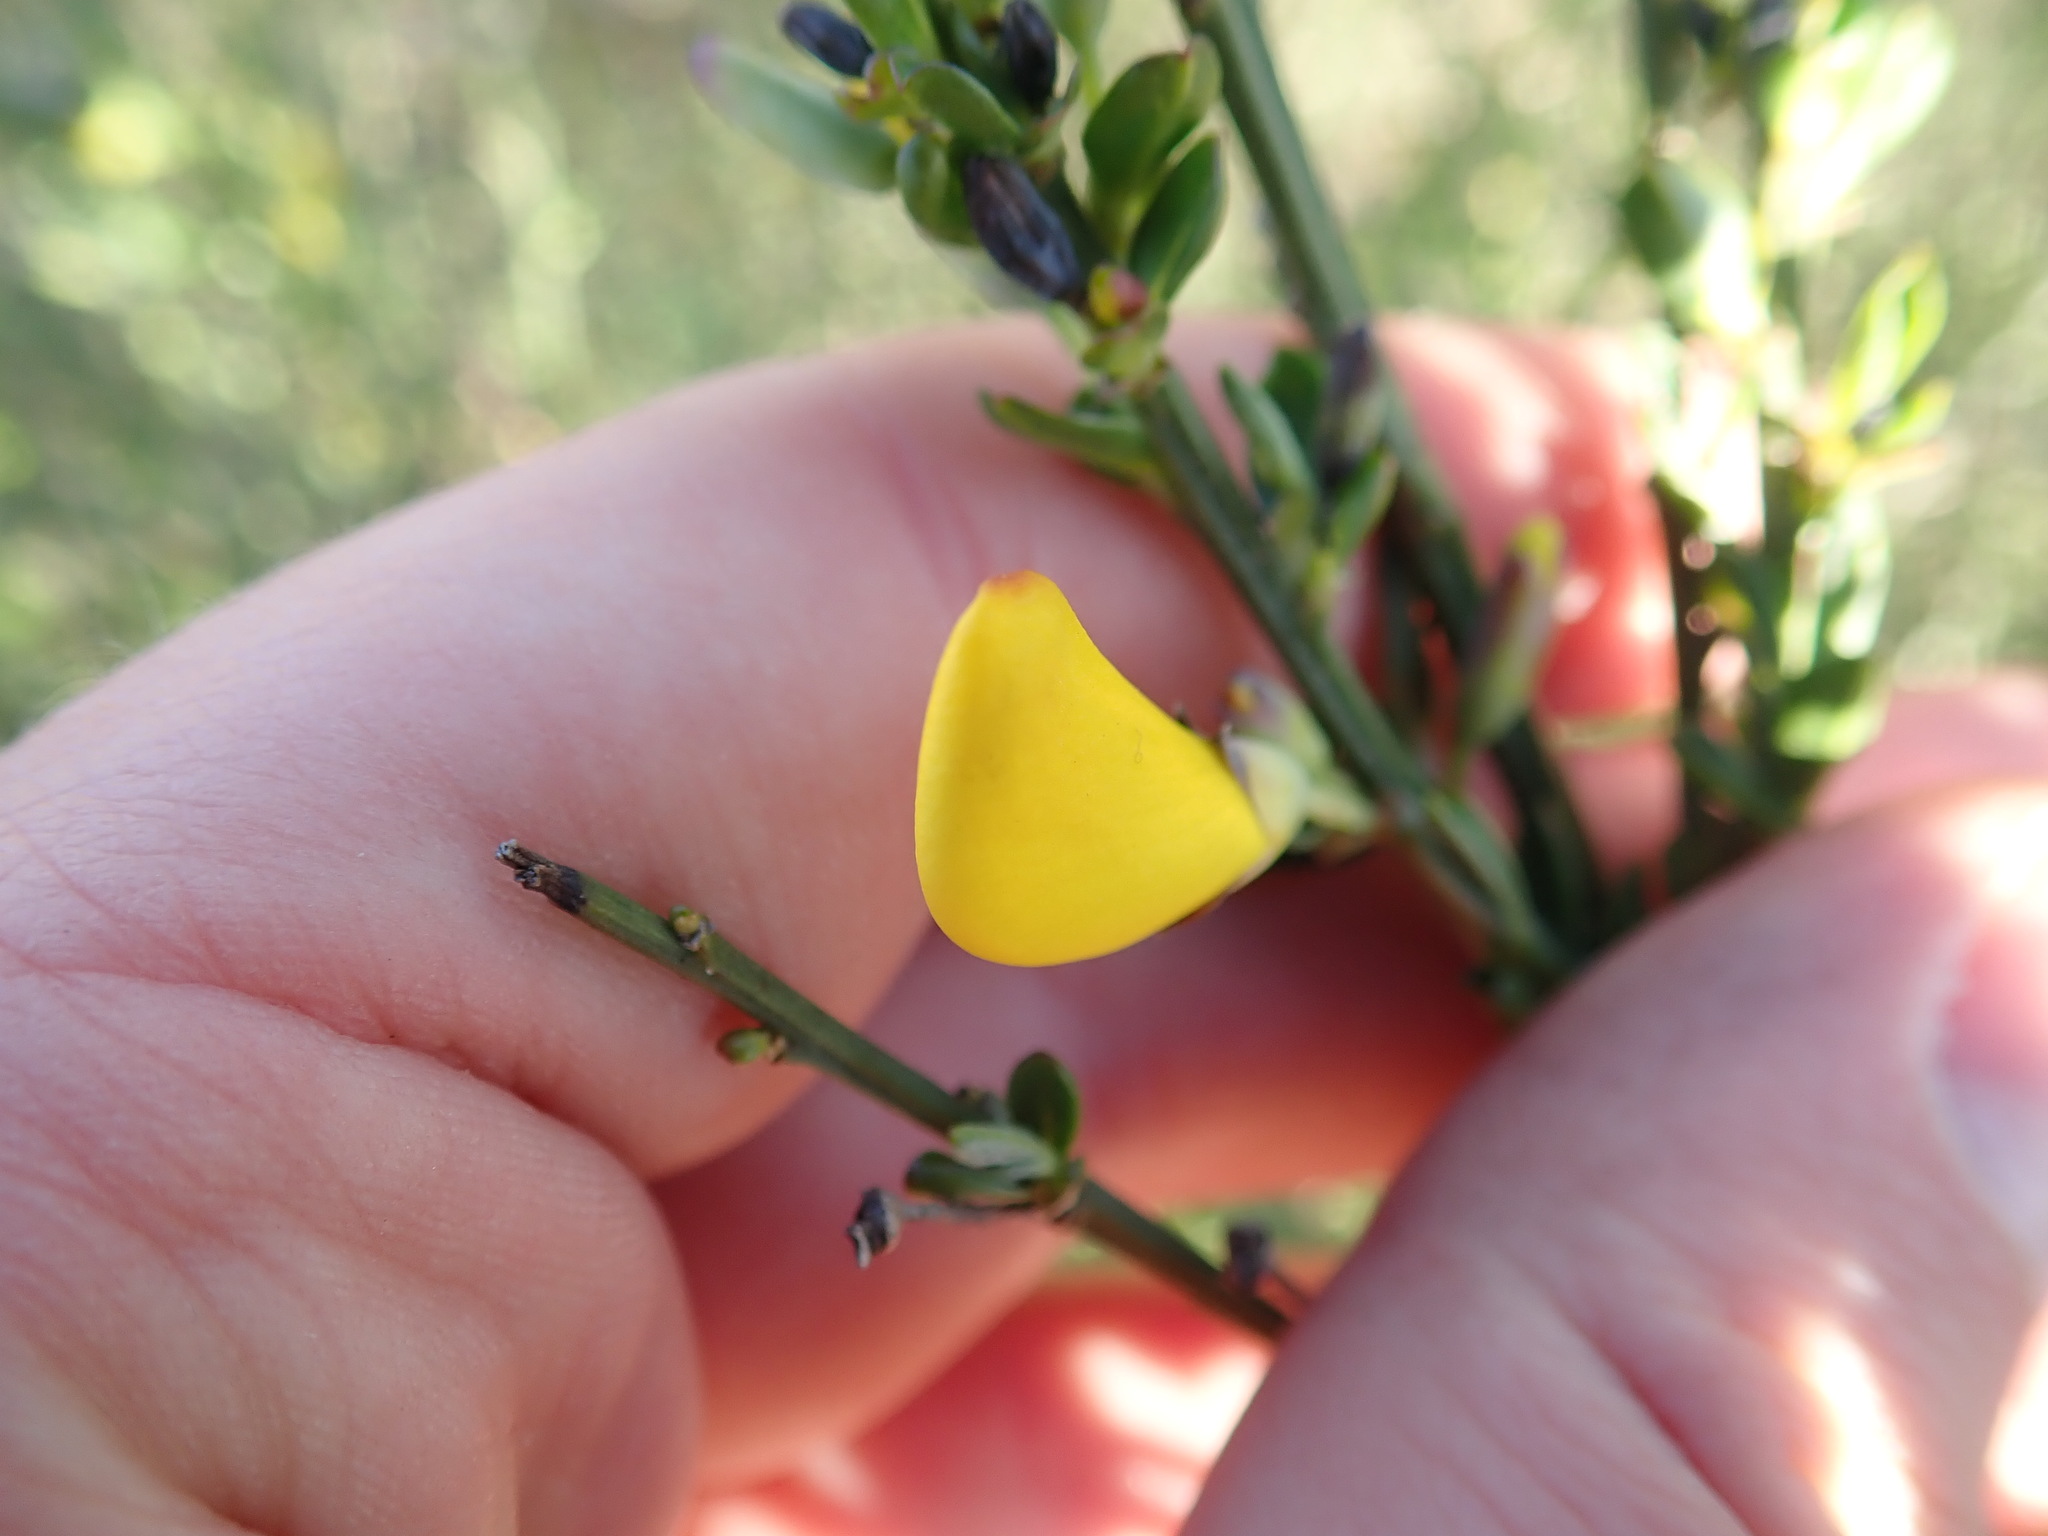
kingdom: Plantae
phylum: Tracheophyta
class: Magnoliopsida
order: Fabales
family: Fabaceae
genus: Cytisus
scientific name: Cytisus scoparius
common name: Scotch broom
